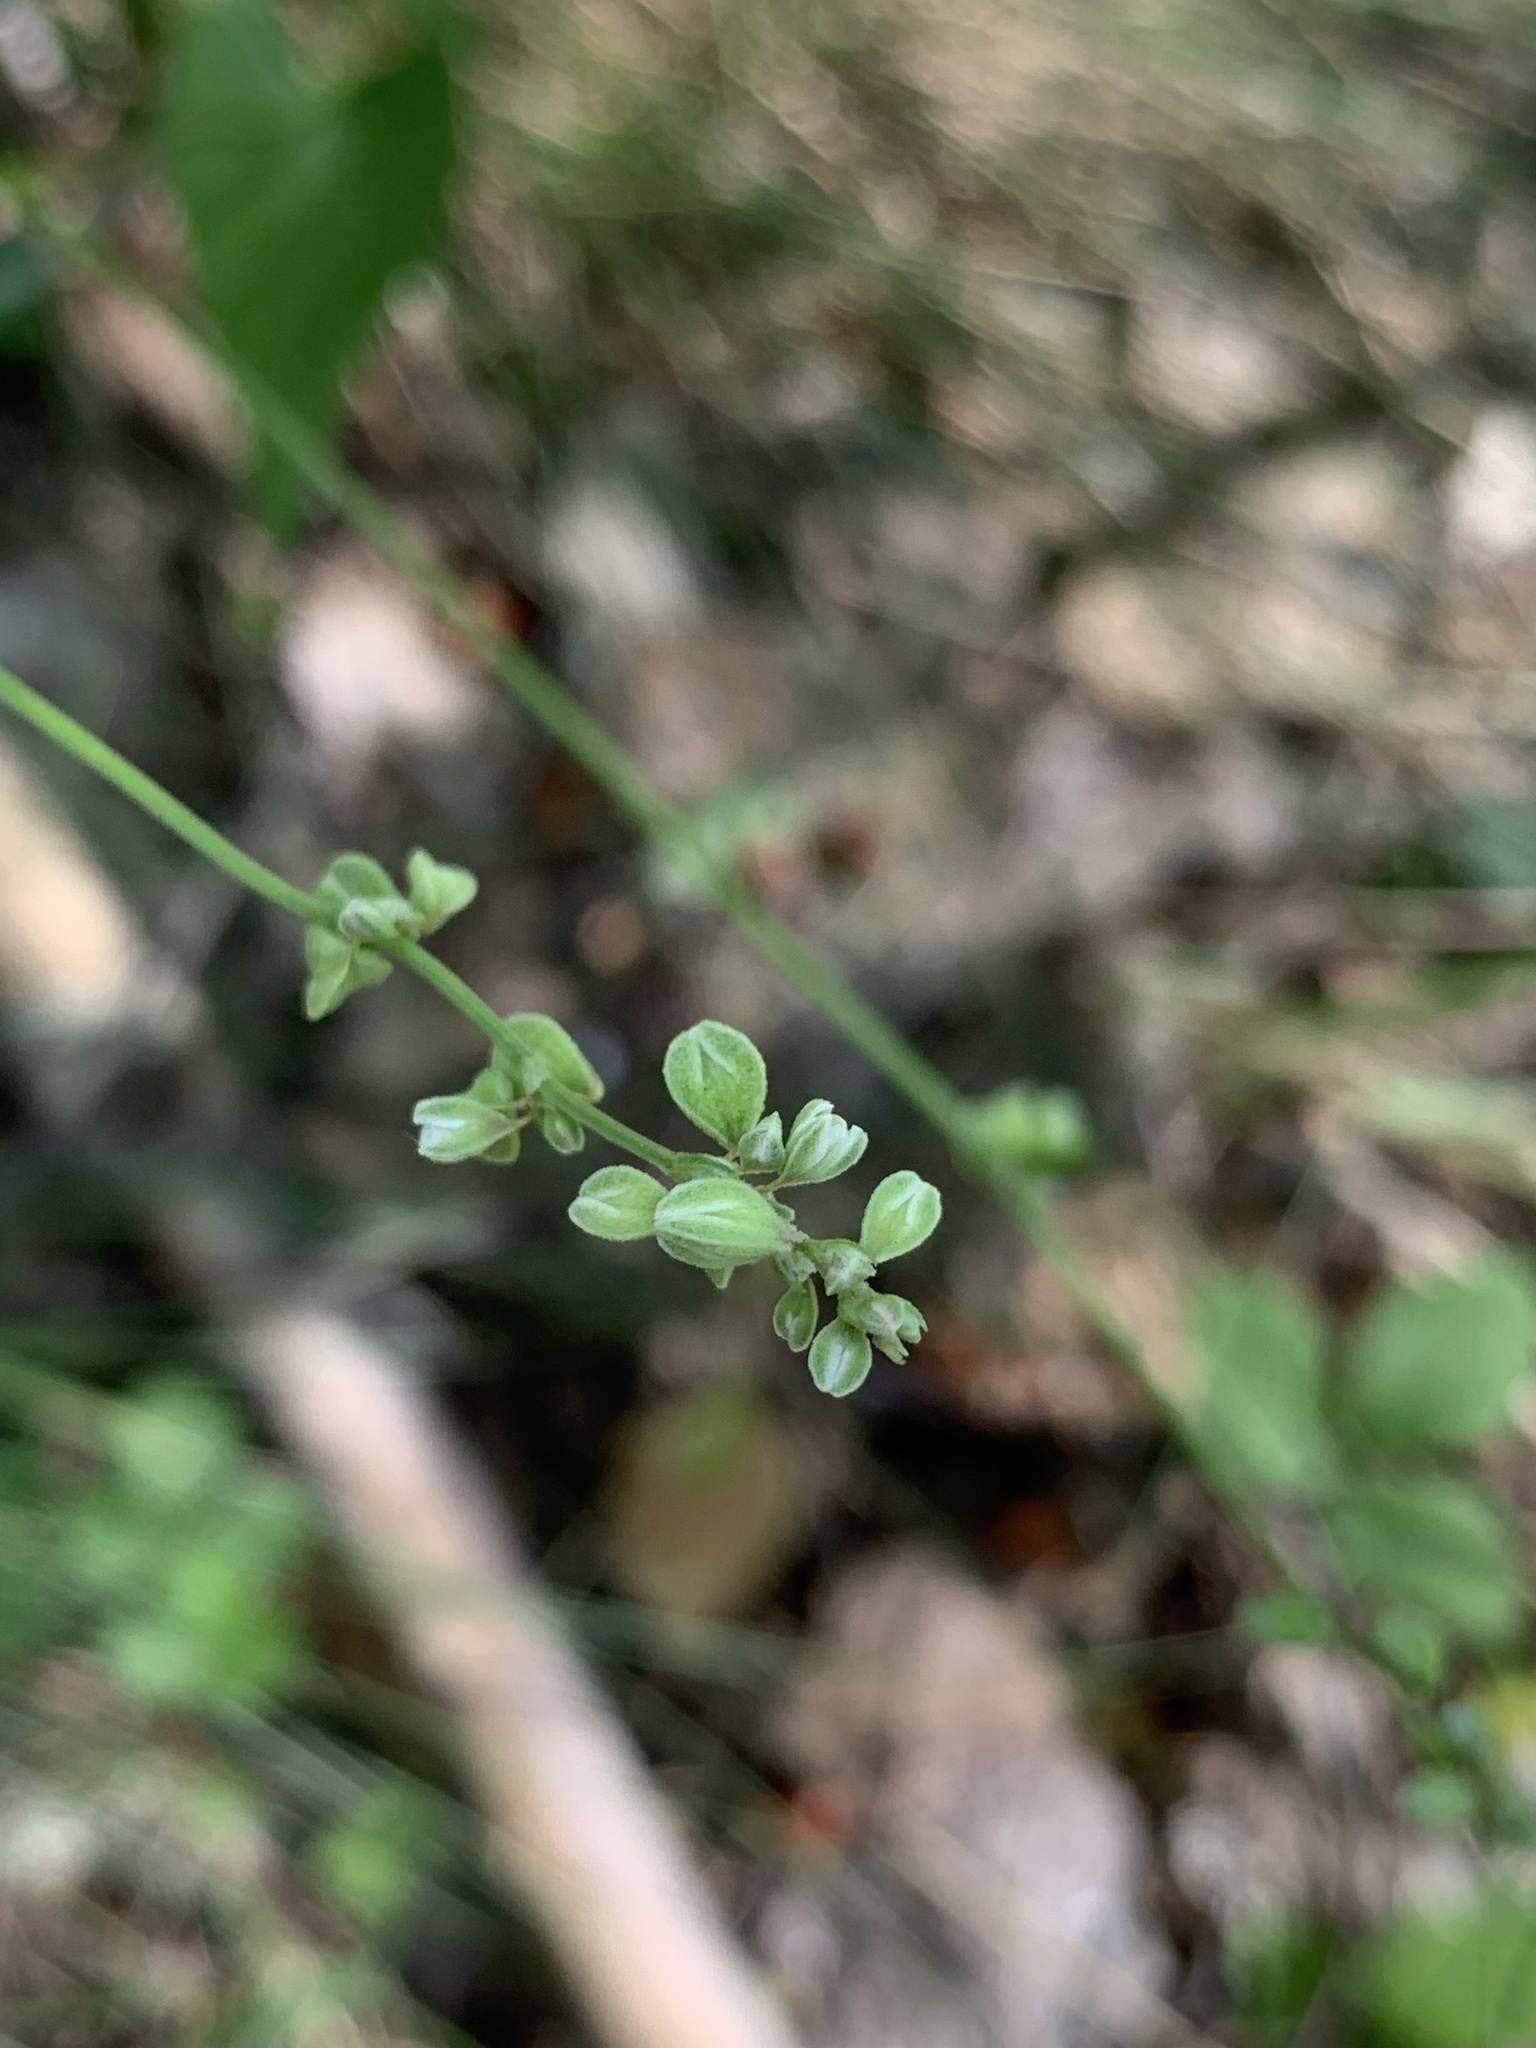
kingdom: Plantae
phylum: Tracheophyta
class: Magnoliopsida
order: Caryophyllales
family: Polygonaceae
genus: Fallopia
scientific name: Fallopia convolvulus
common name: Black bindweed
